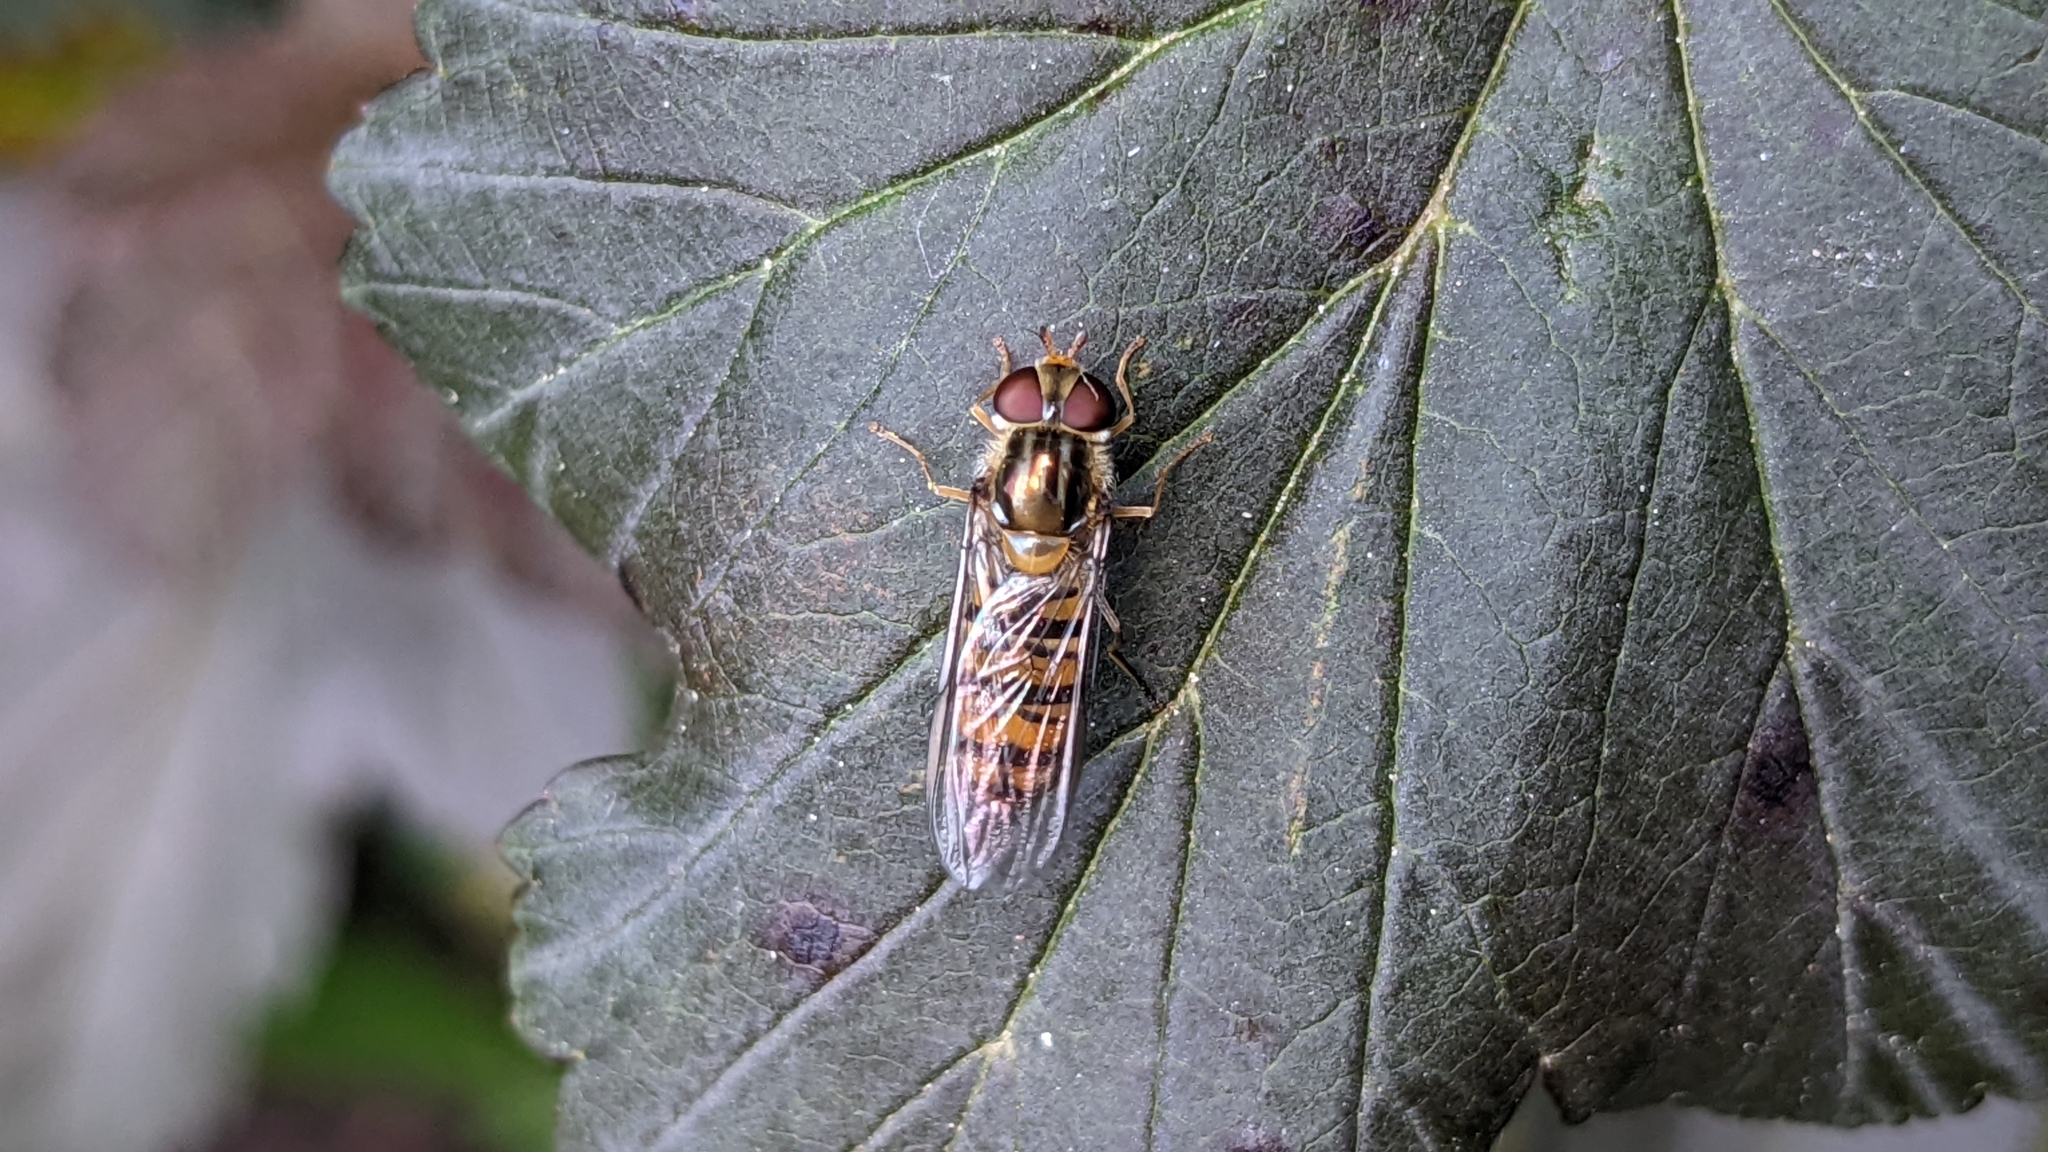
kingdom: Animalia
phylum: Arthropoda
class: Insecta
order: Diptera
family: Syrphidae
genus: Episyrphus
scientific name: Episyrphus balteatus
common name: Marmalade hoverfly
